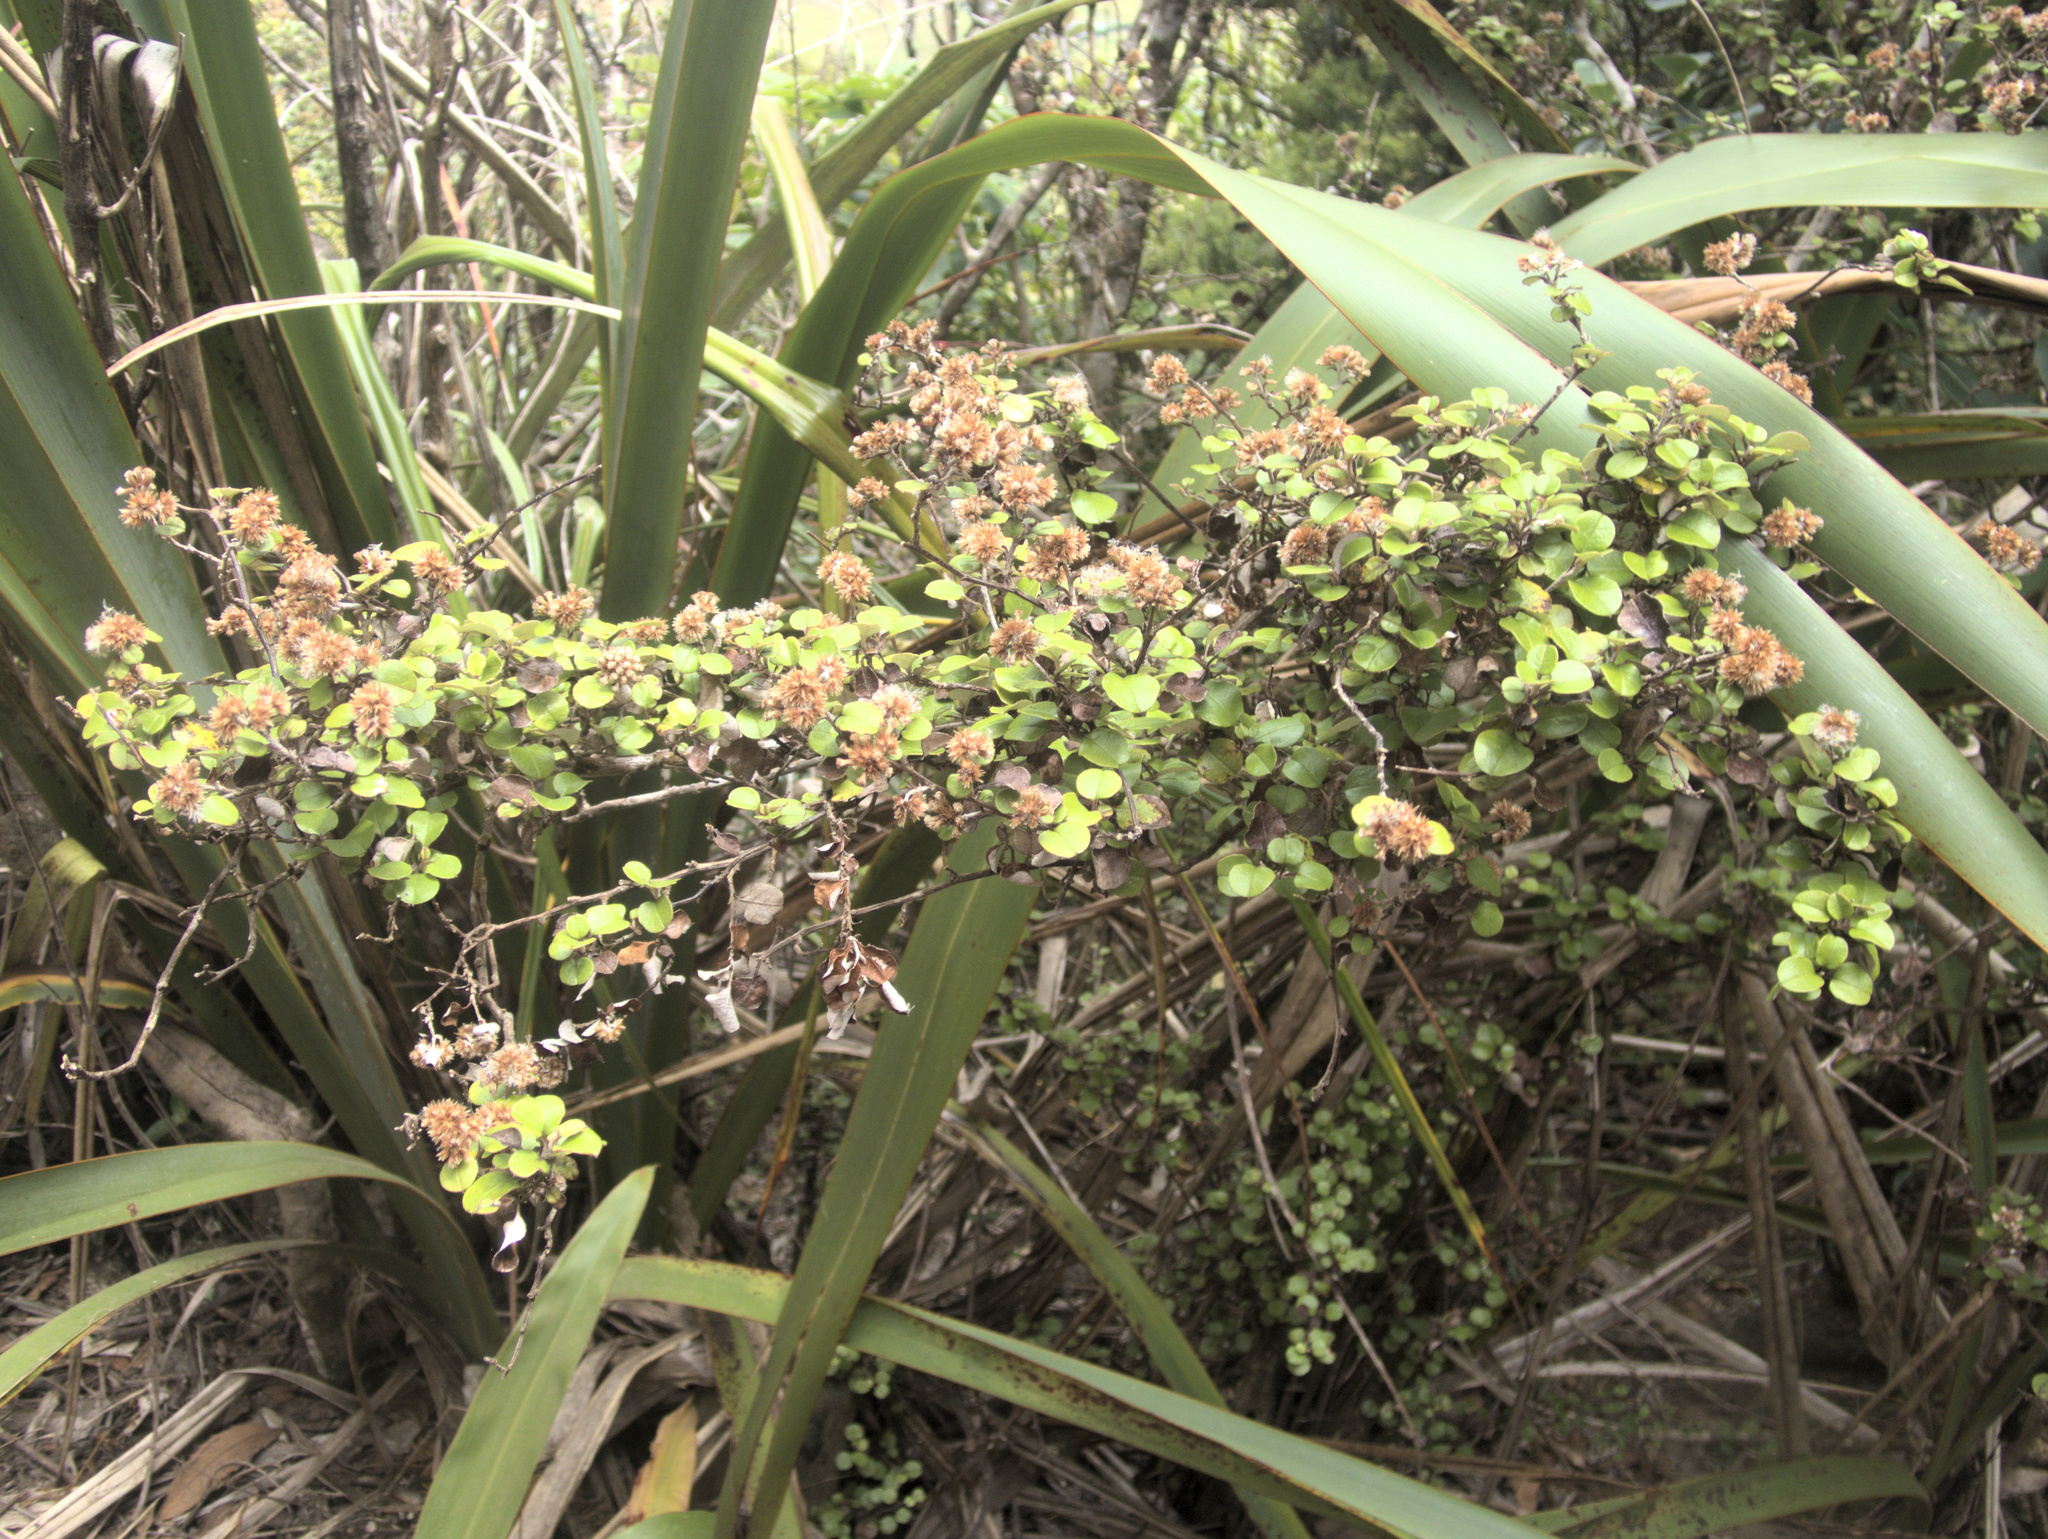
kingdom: Plantae
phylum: Tracheophyta
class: Magnoliopsida
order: Asterales
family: Asteraceae
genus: Ozothamnus
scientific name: Ozothamnus glomeratus
